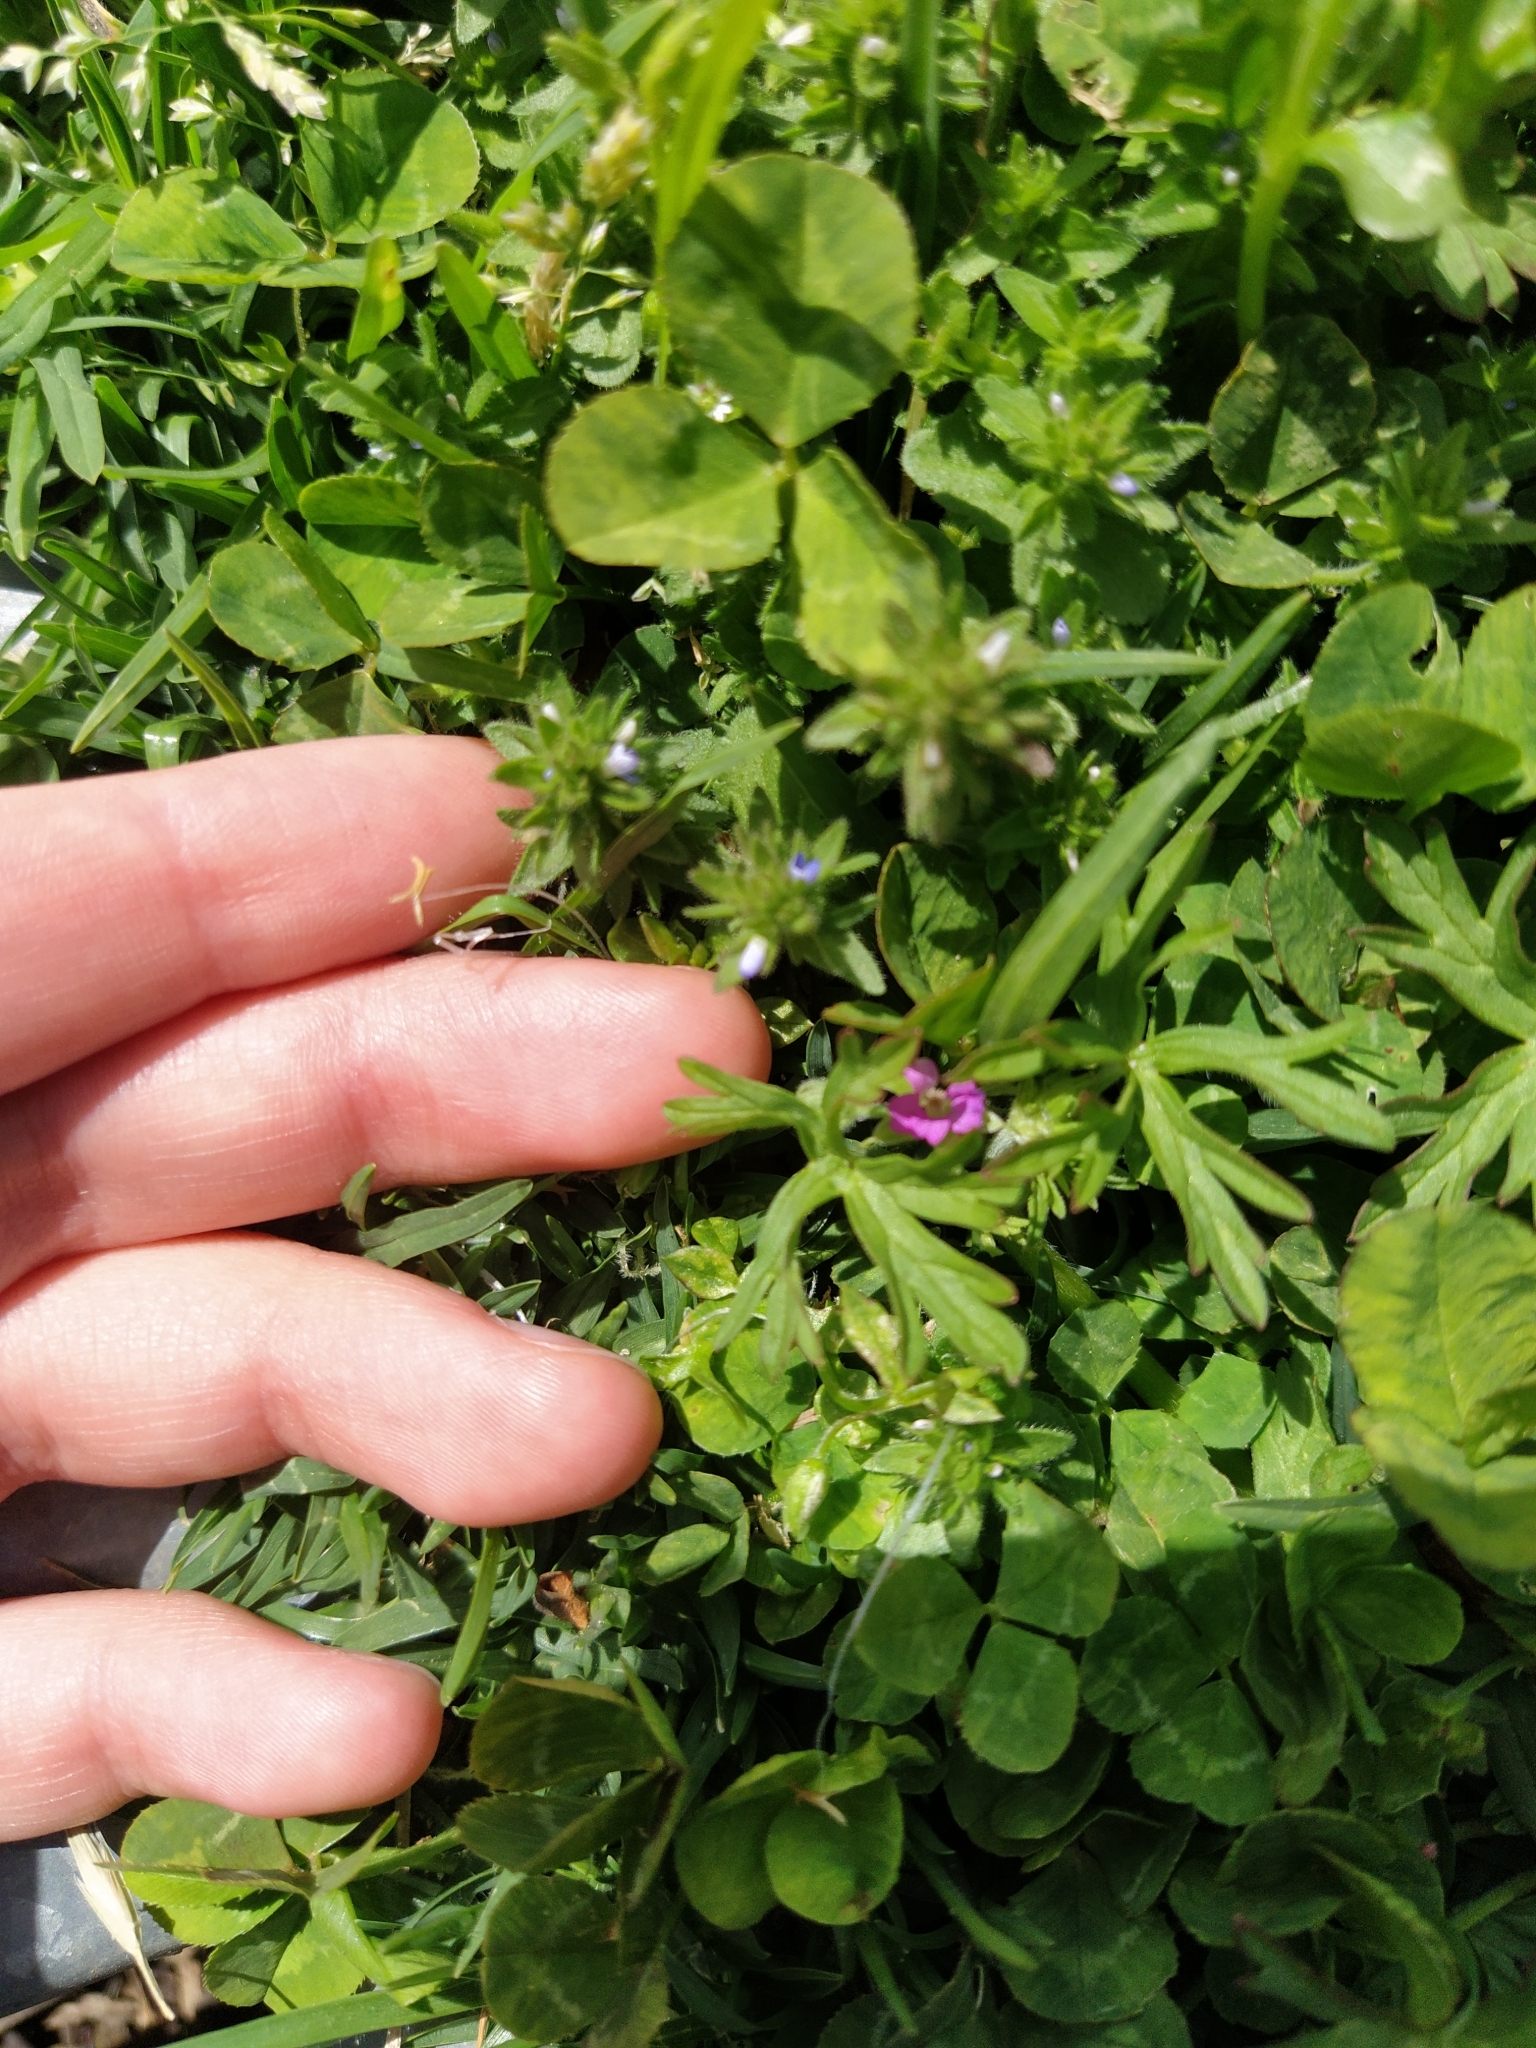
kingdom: Plantae
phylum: Tracheophyta
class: Magnoliopsida
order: Geraniales
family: Geraniaceae
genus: Geranium
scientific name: Geranium dissectum
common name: Cut-leaved crane's-bill
